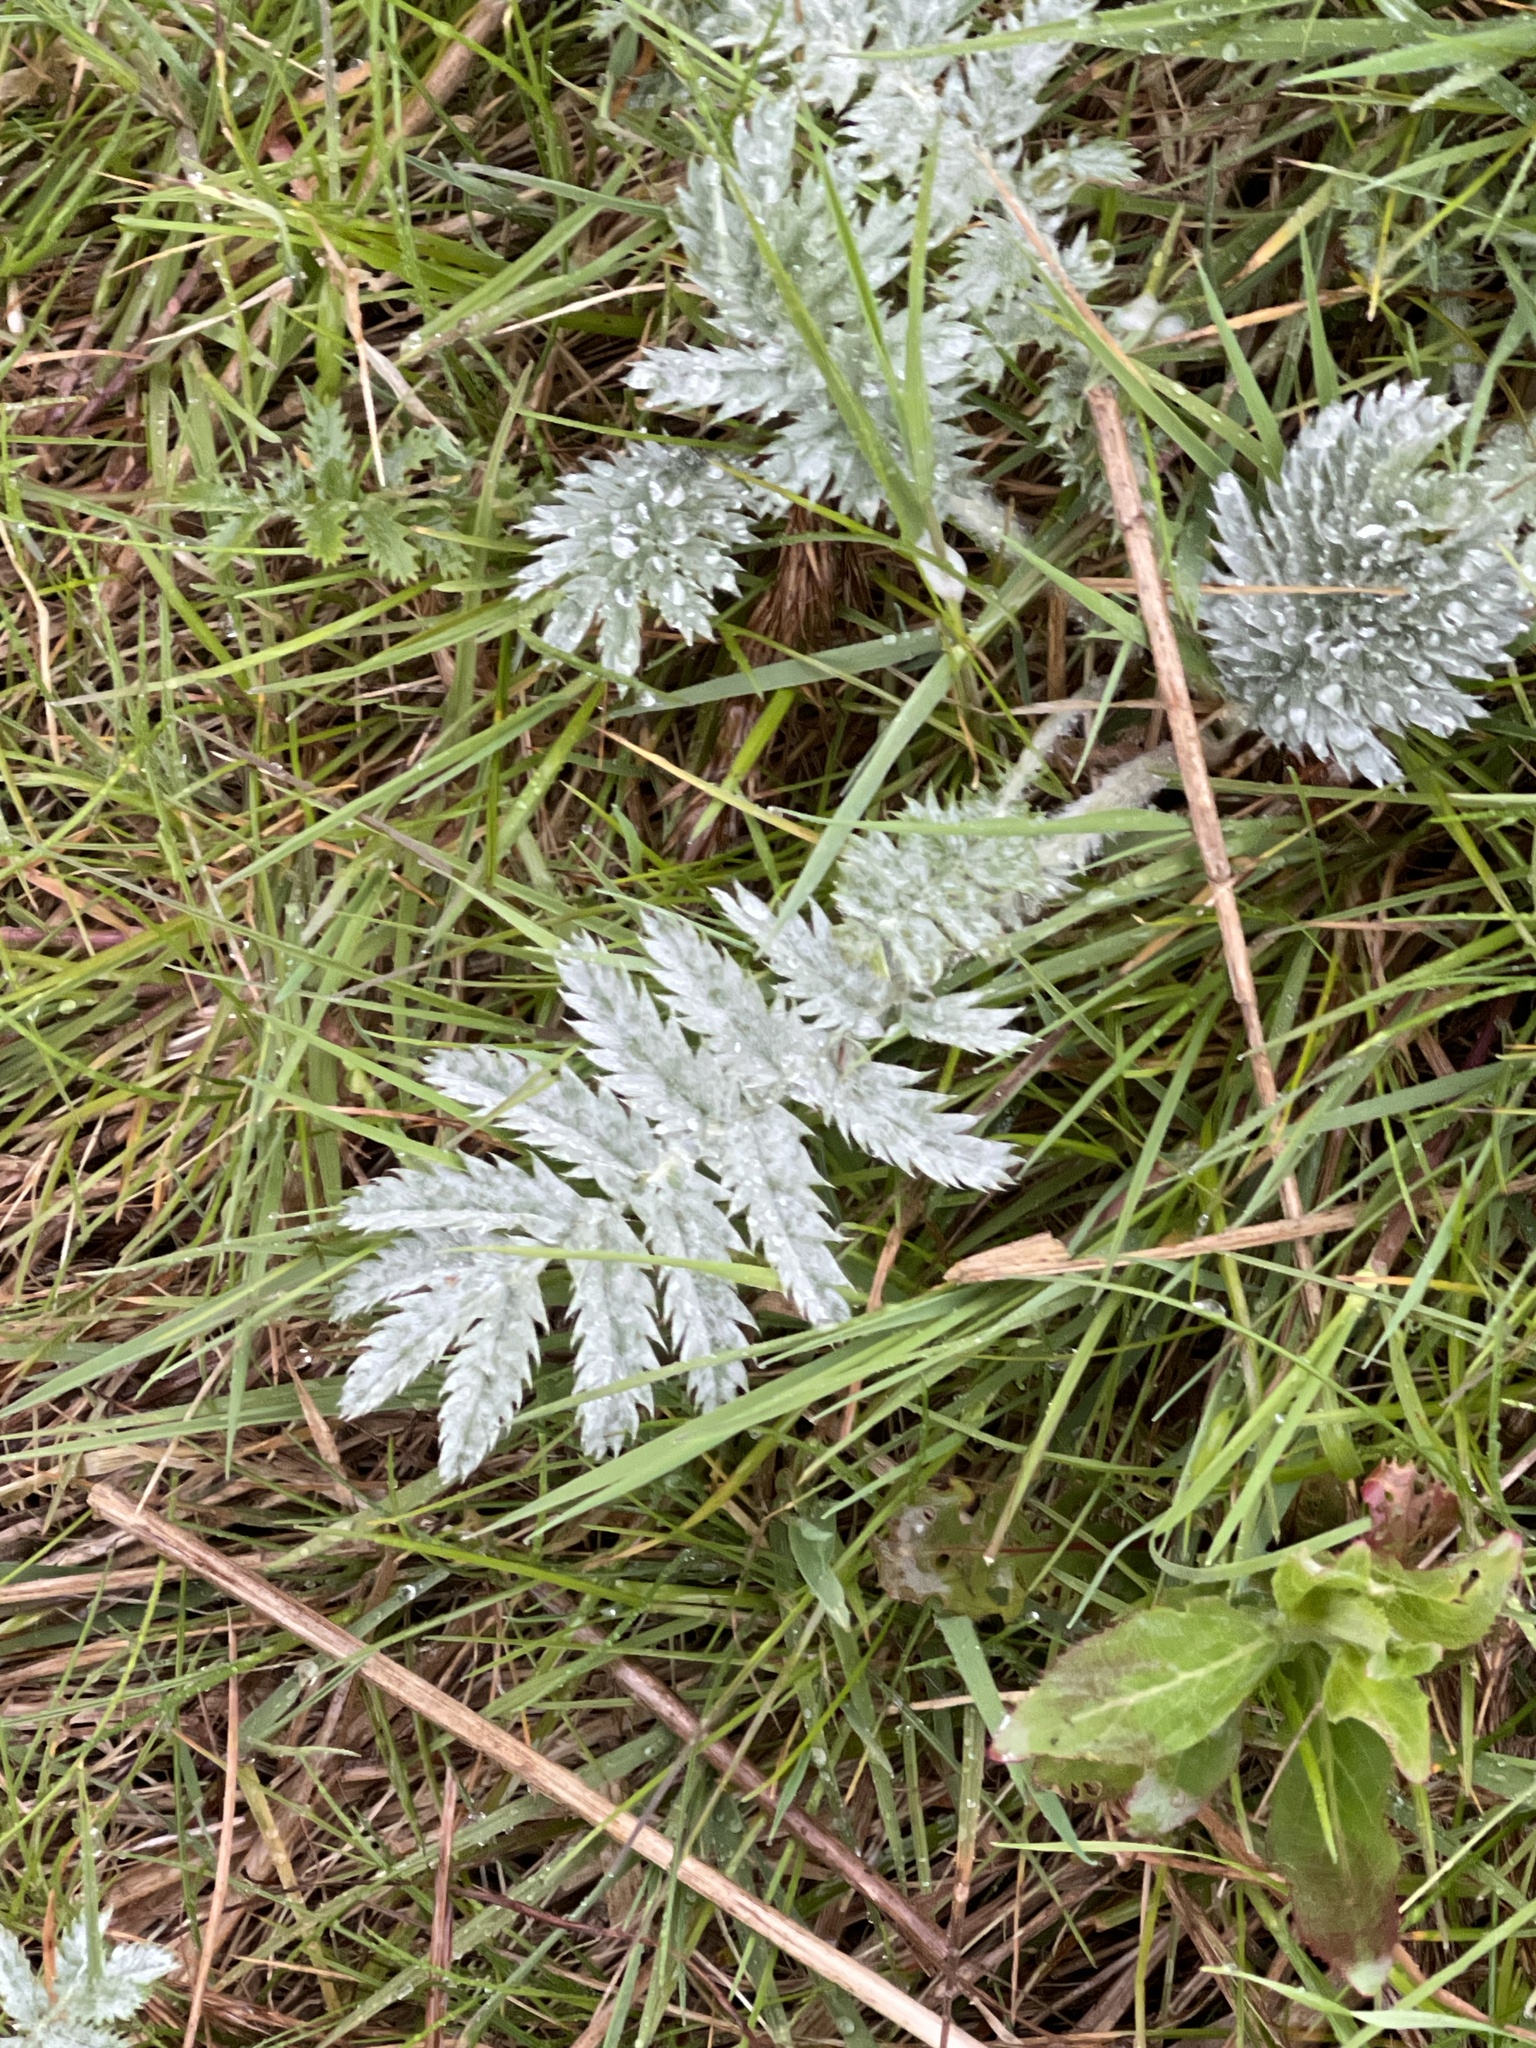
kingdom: Plantae
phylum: Tracheophyta
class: Magnoliopsida
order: Rosales
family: Rosaceae
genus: Argentina
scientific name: Argentina anserina
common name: Common silverweed
